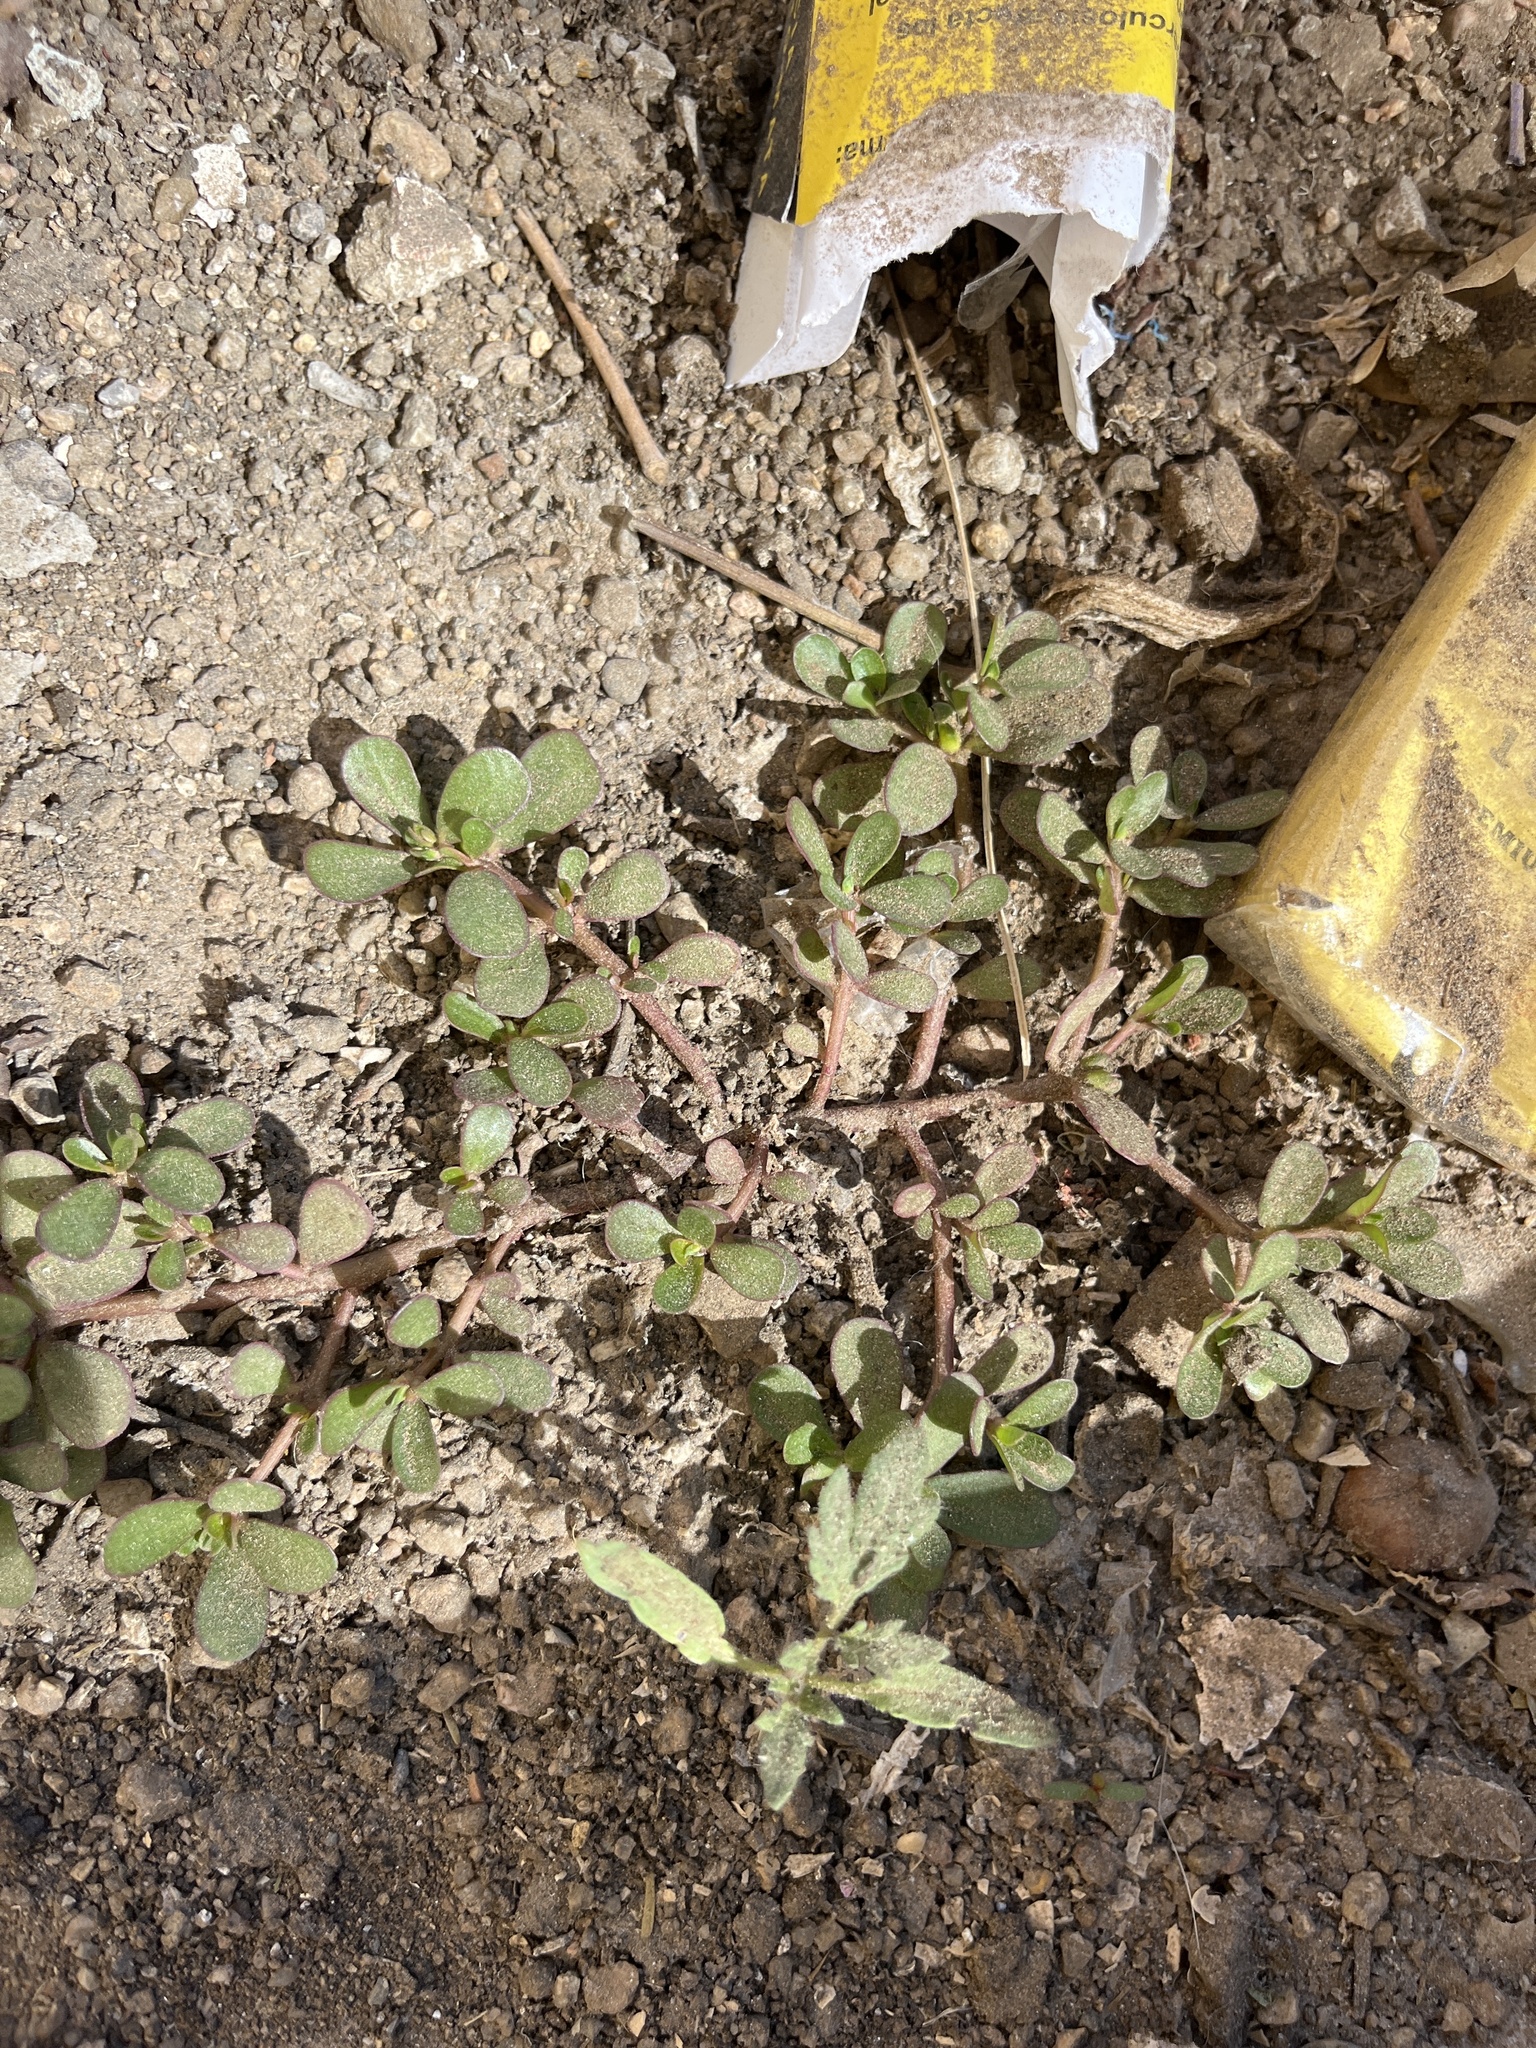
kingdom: Plantae
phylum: Tracheophyta
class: Magnoliopsida
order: Caryophyllales
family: Portulacaceae
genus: Portulaca
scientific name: Portulaca oleracea
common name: Common purslane
